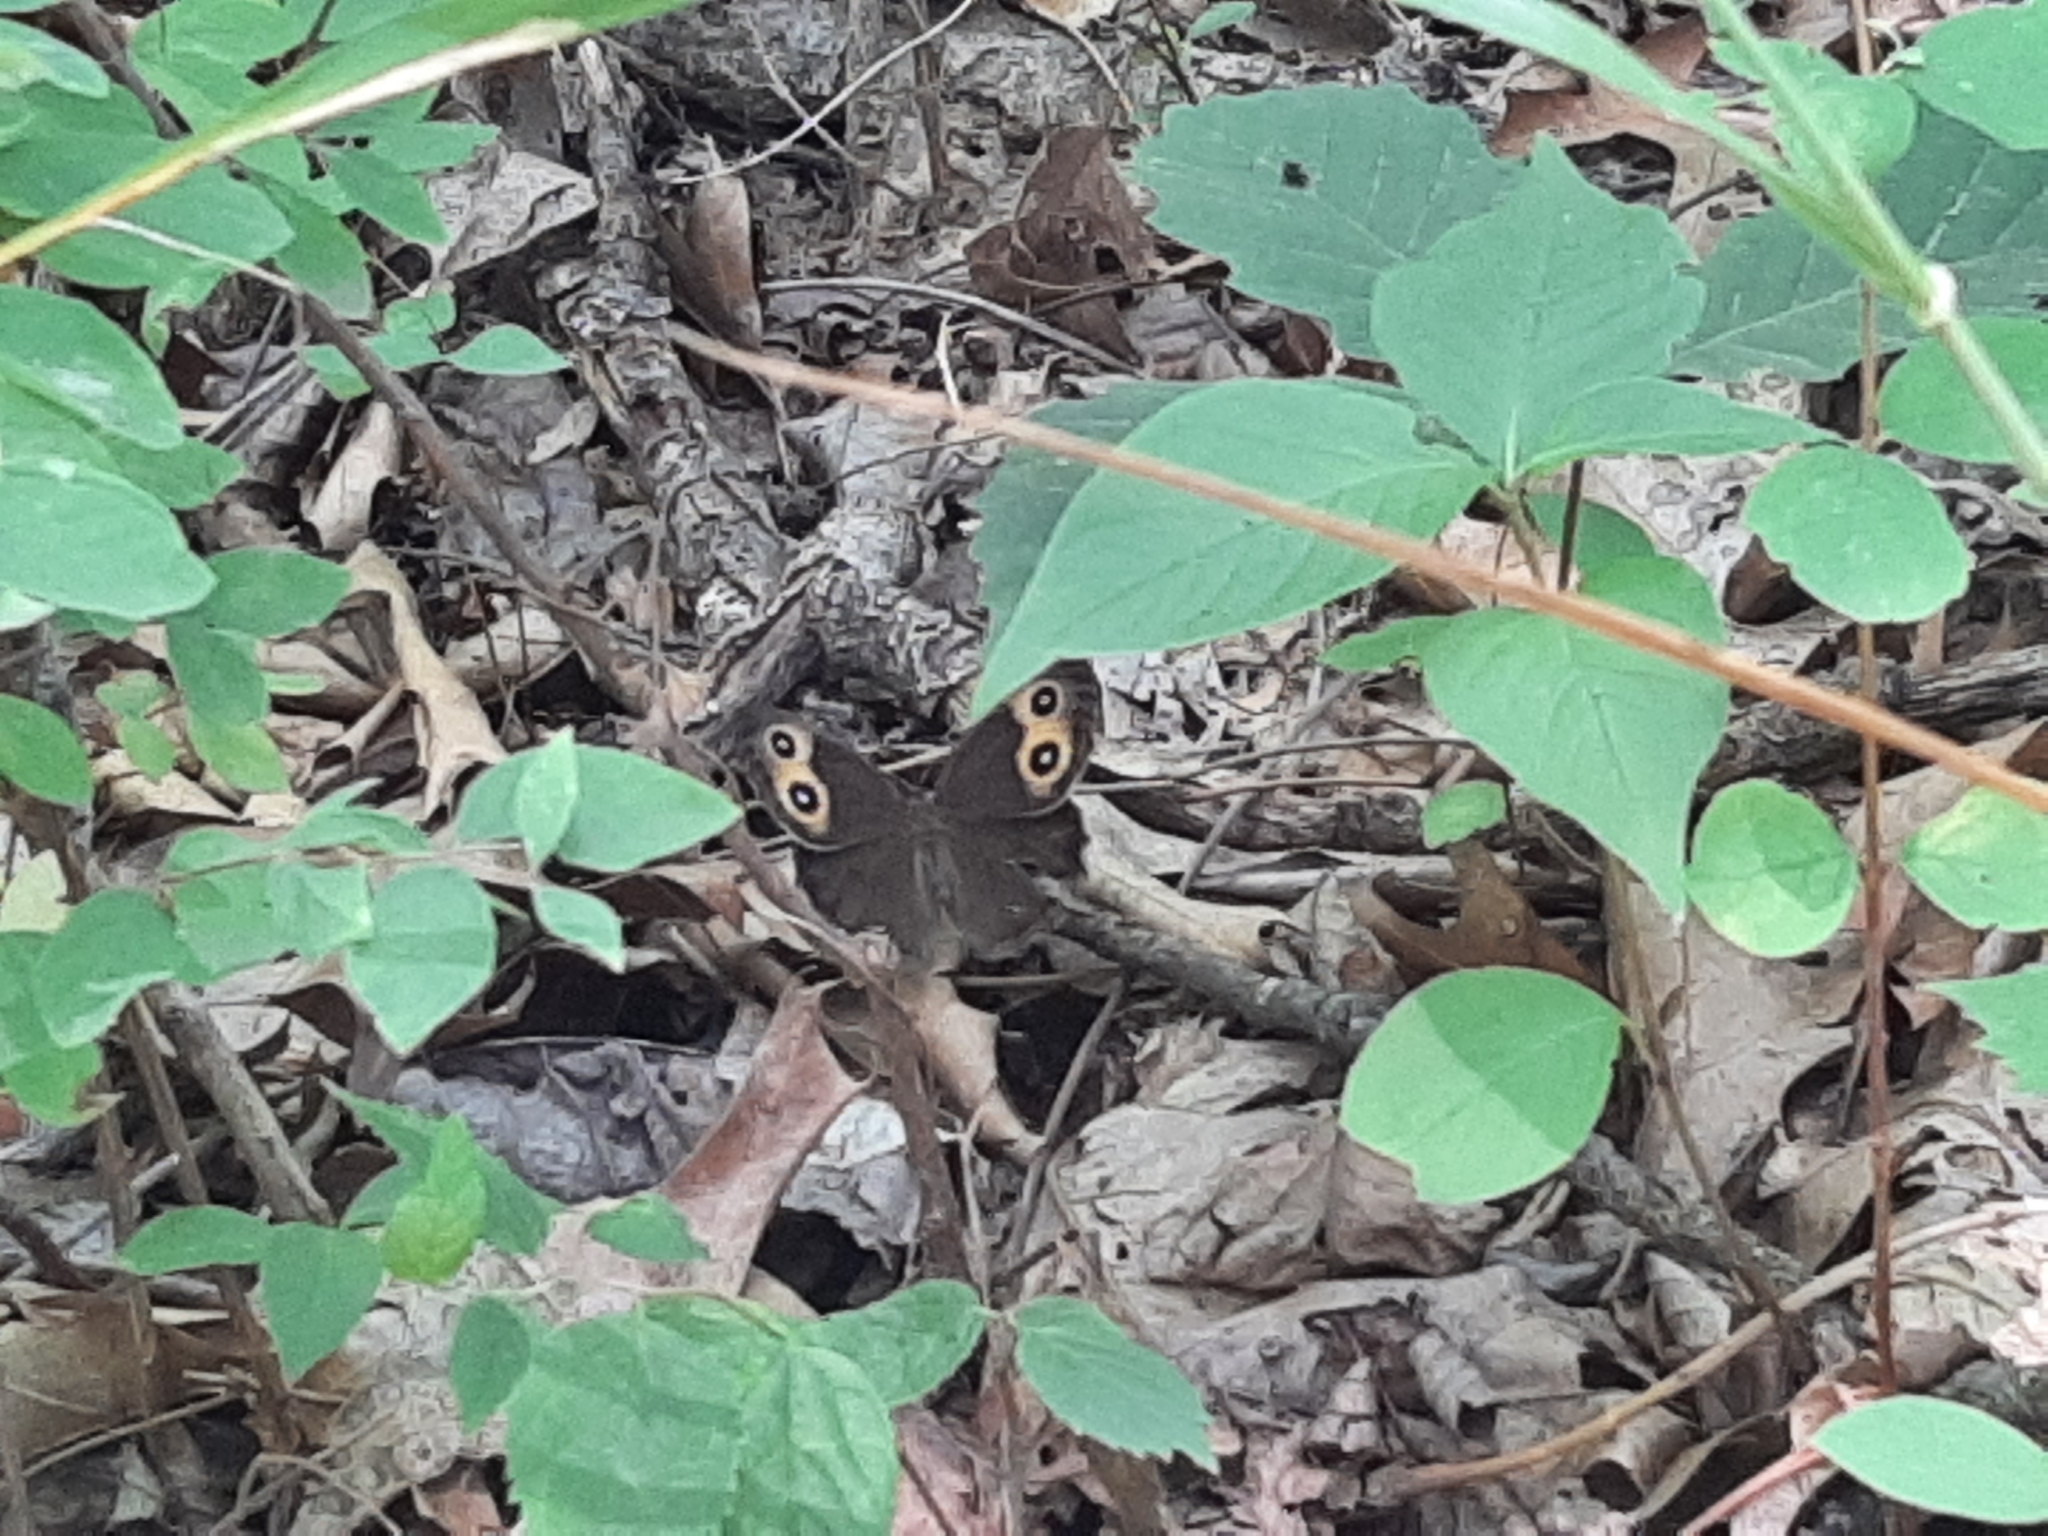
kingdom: Animalia
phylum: Arthropoda
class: Insecta
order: Lepidoptera
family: Nymphalidae
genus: Cercyonis
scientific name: Cercyonis pegala
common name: Common wood-nymph
